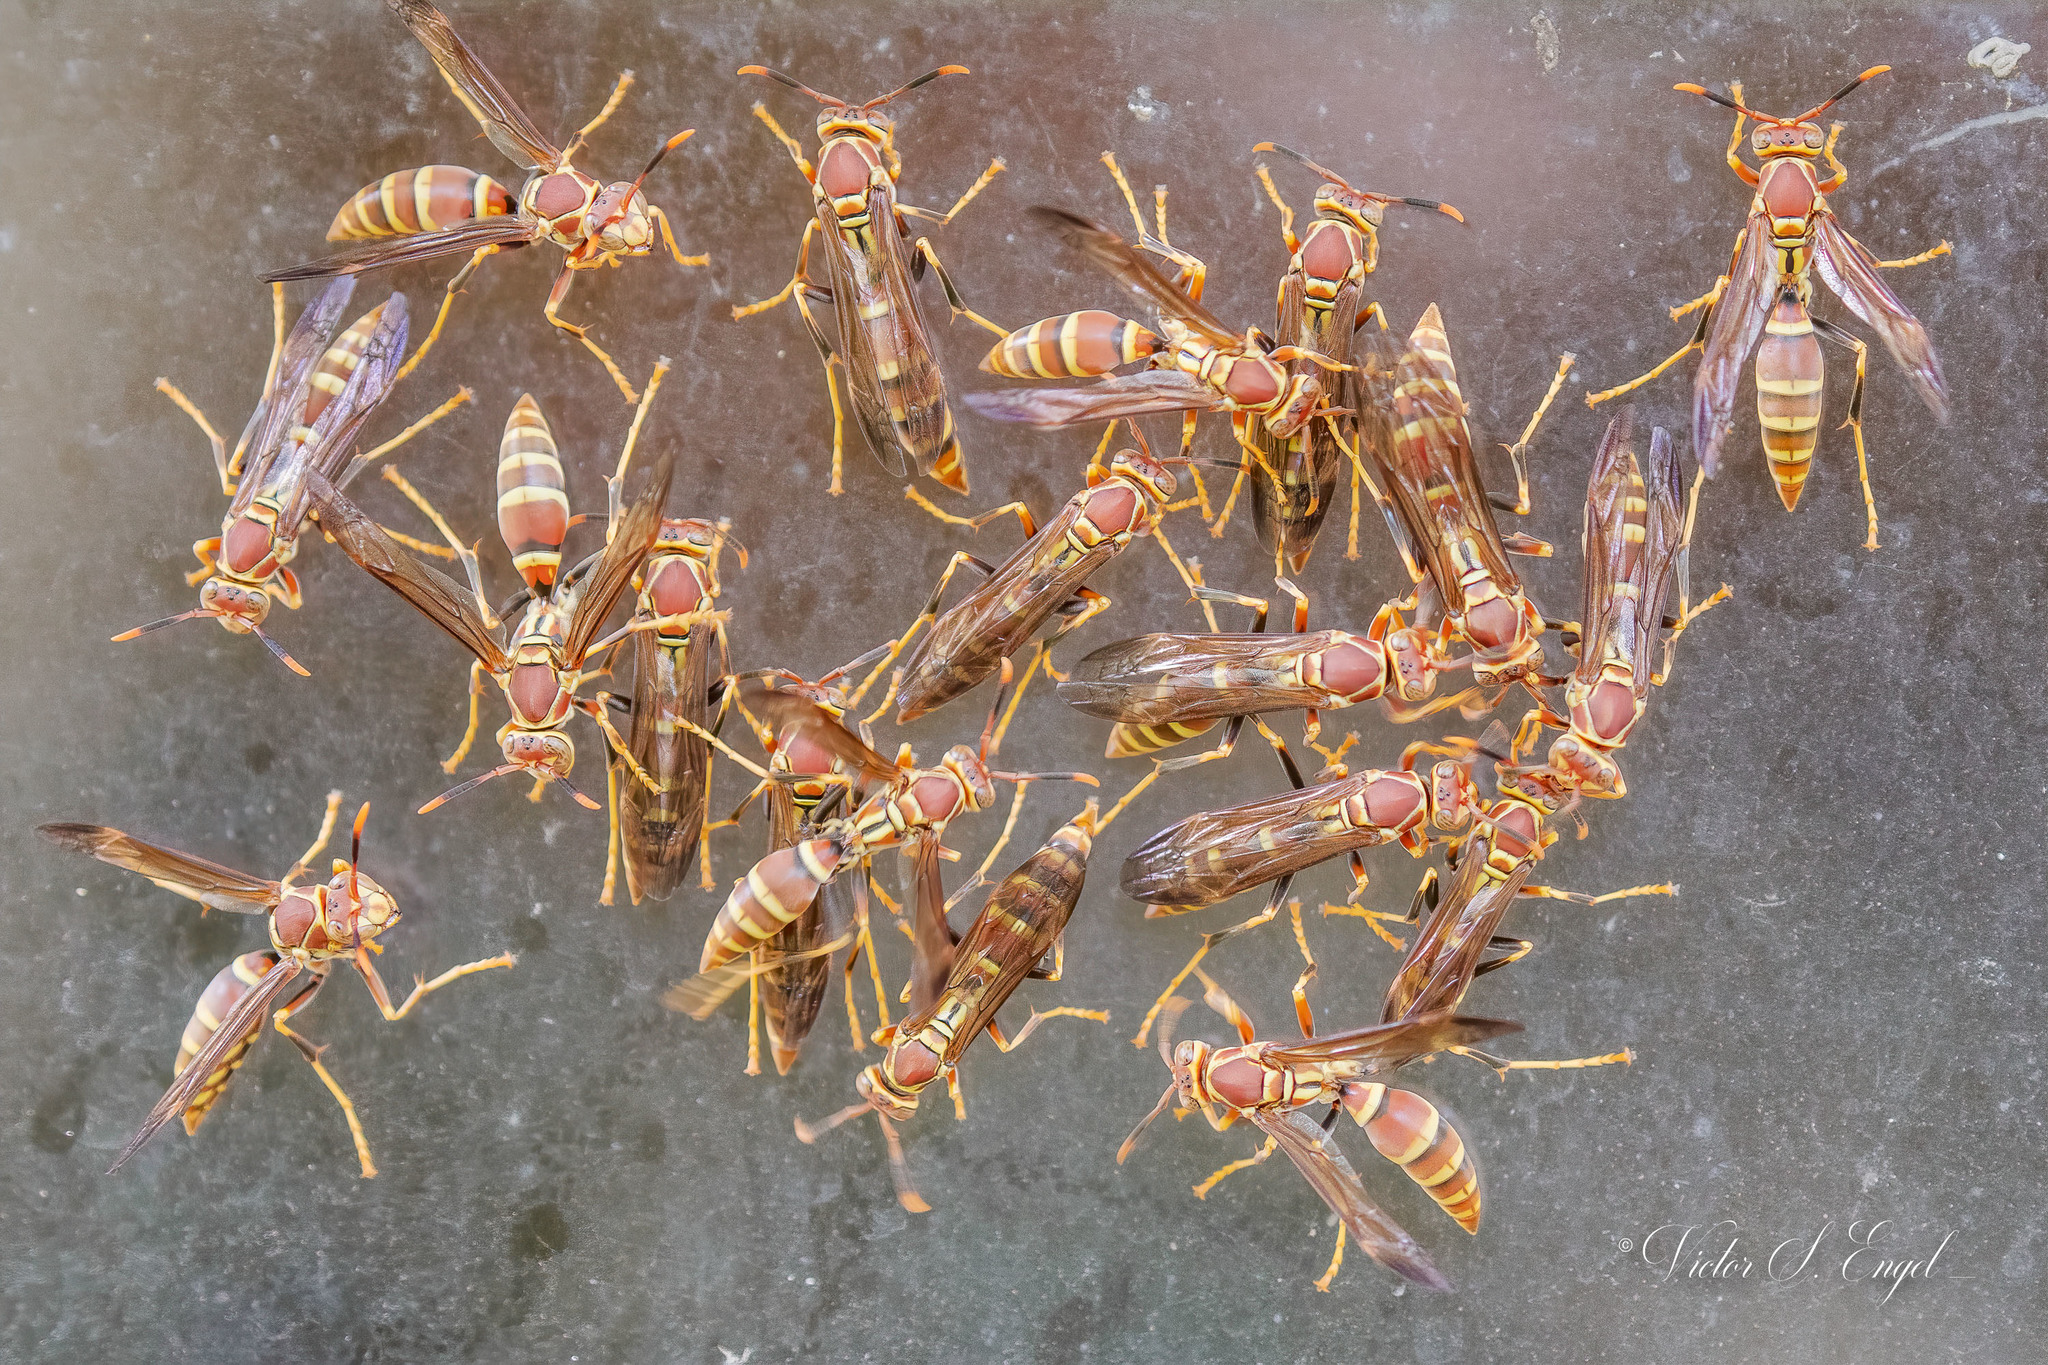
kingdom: Animalia
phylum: Arthropoda
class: Insecta
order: Hymenoptera
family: Eumenidae
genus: Polistes
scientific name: Polistes exclamans
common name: Paper wasp
